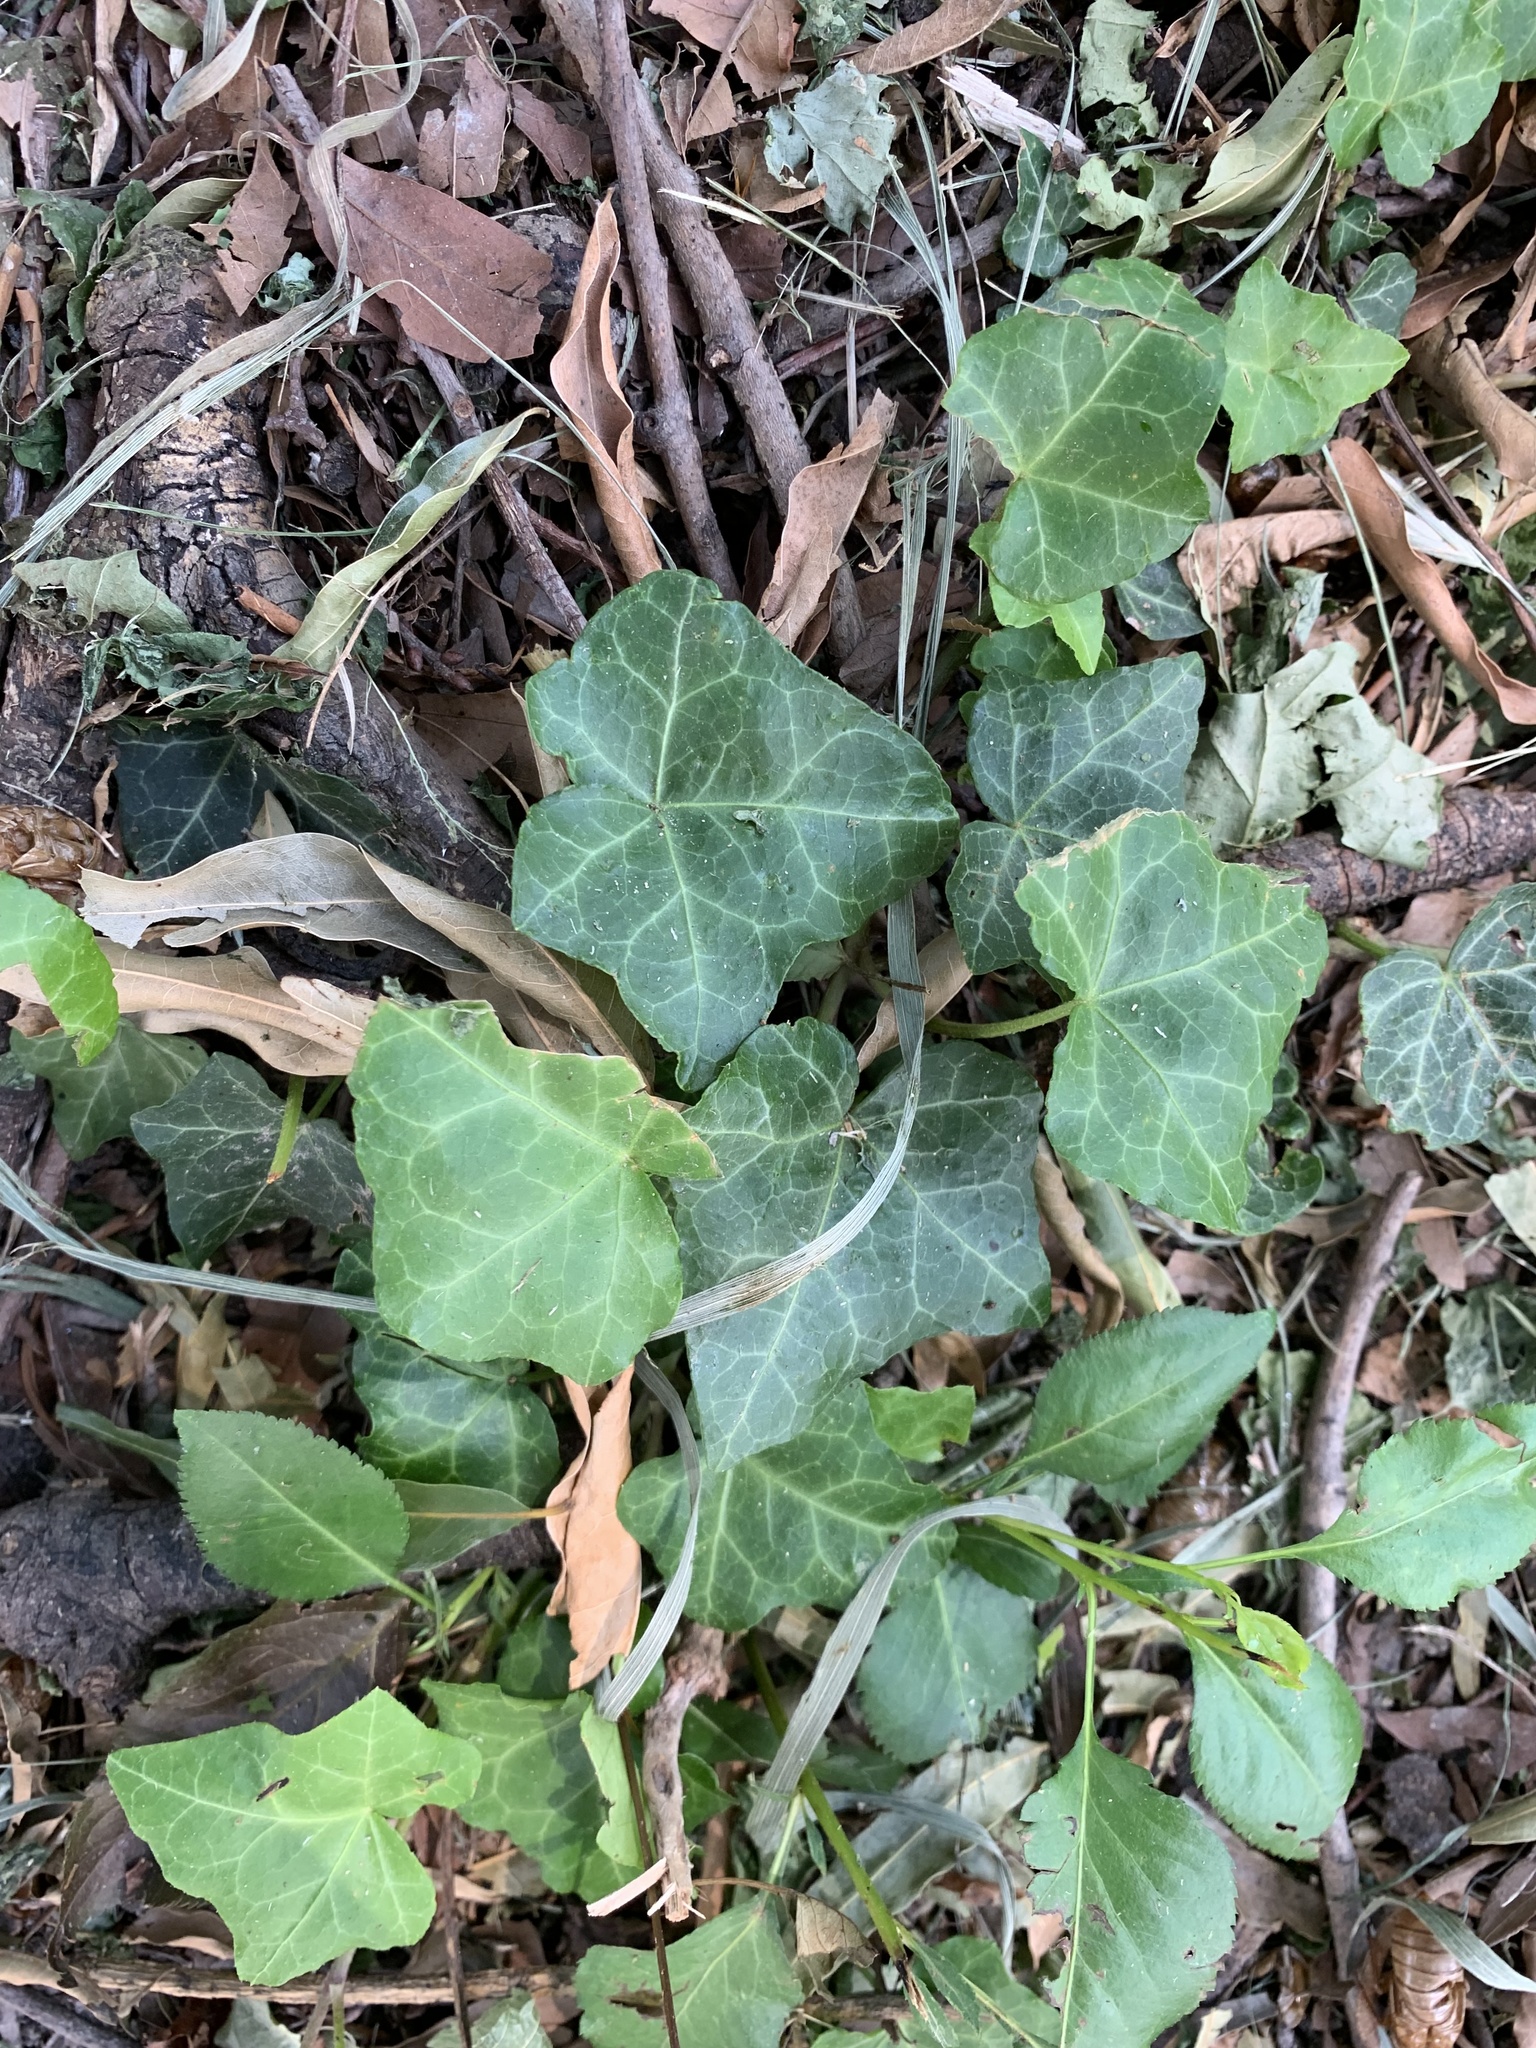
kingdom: Plantae
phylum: Tracheophyta
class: Magnoliopsida
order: Apiales
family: Araliaceae
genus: Hedera
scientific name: Hedera helix
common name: Ivy
